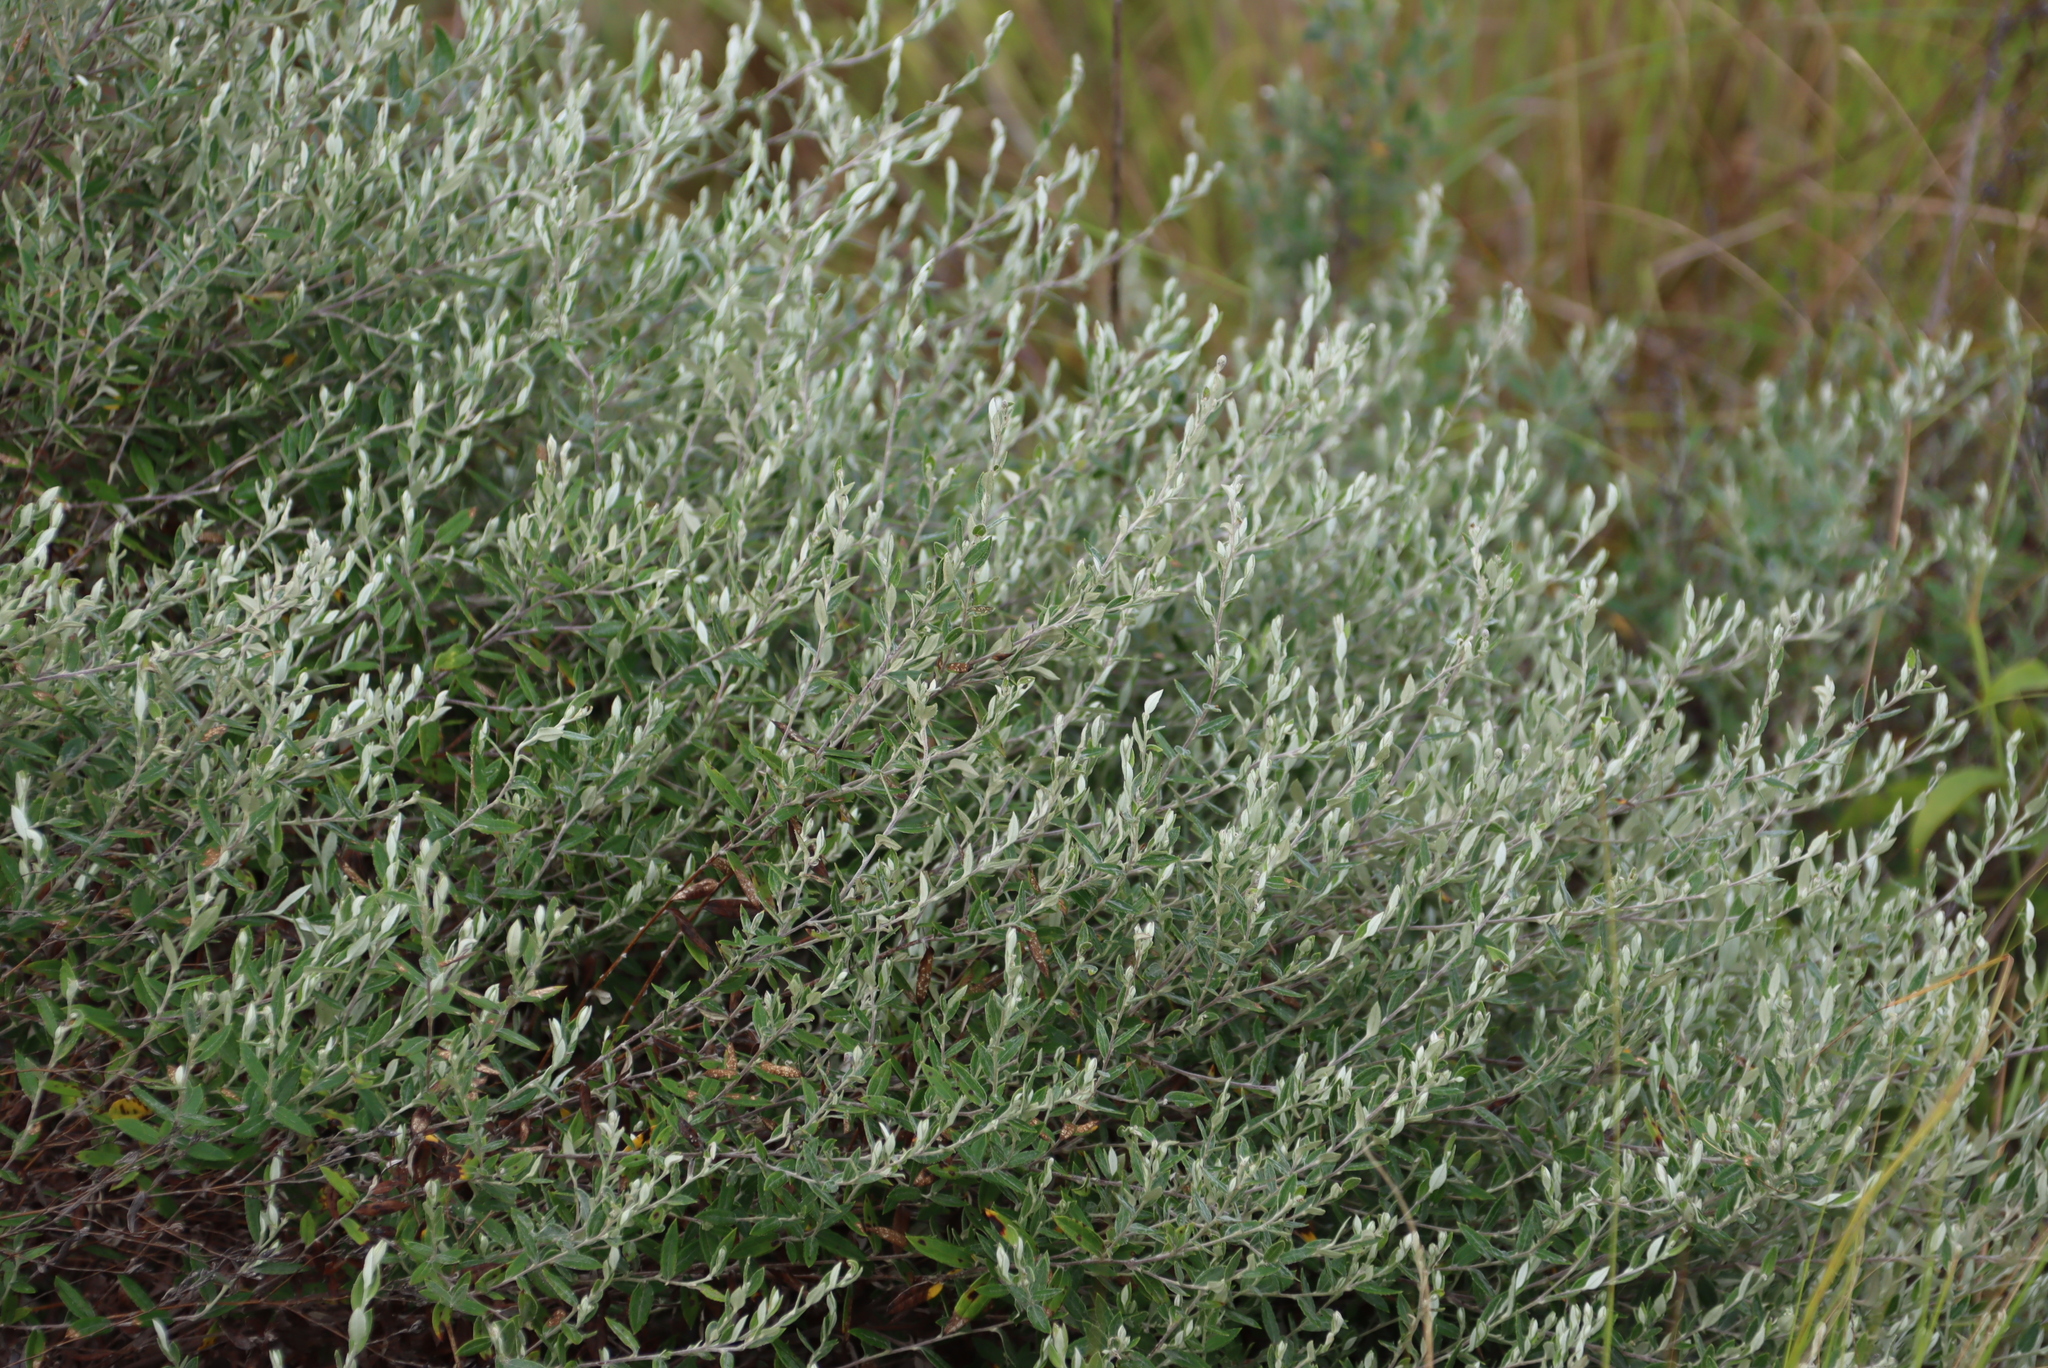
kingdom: Plantae
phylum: Tracheophyta
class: Magnoliopsida
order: Asterales
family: Asteraceae
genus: Athrixia
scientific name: Athrixia phylicoides
